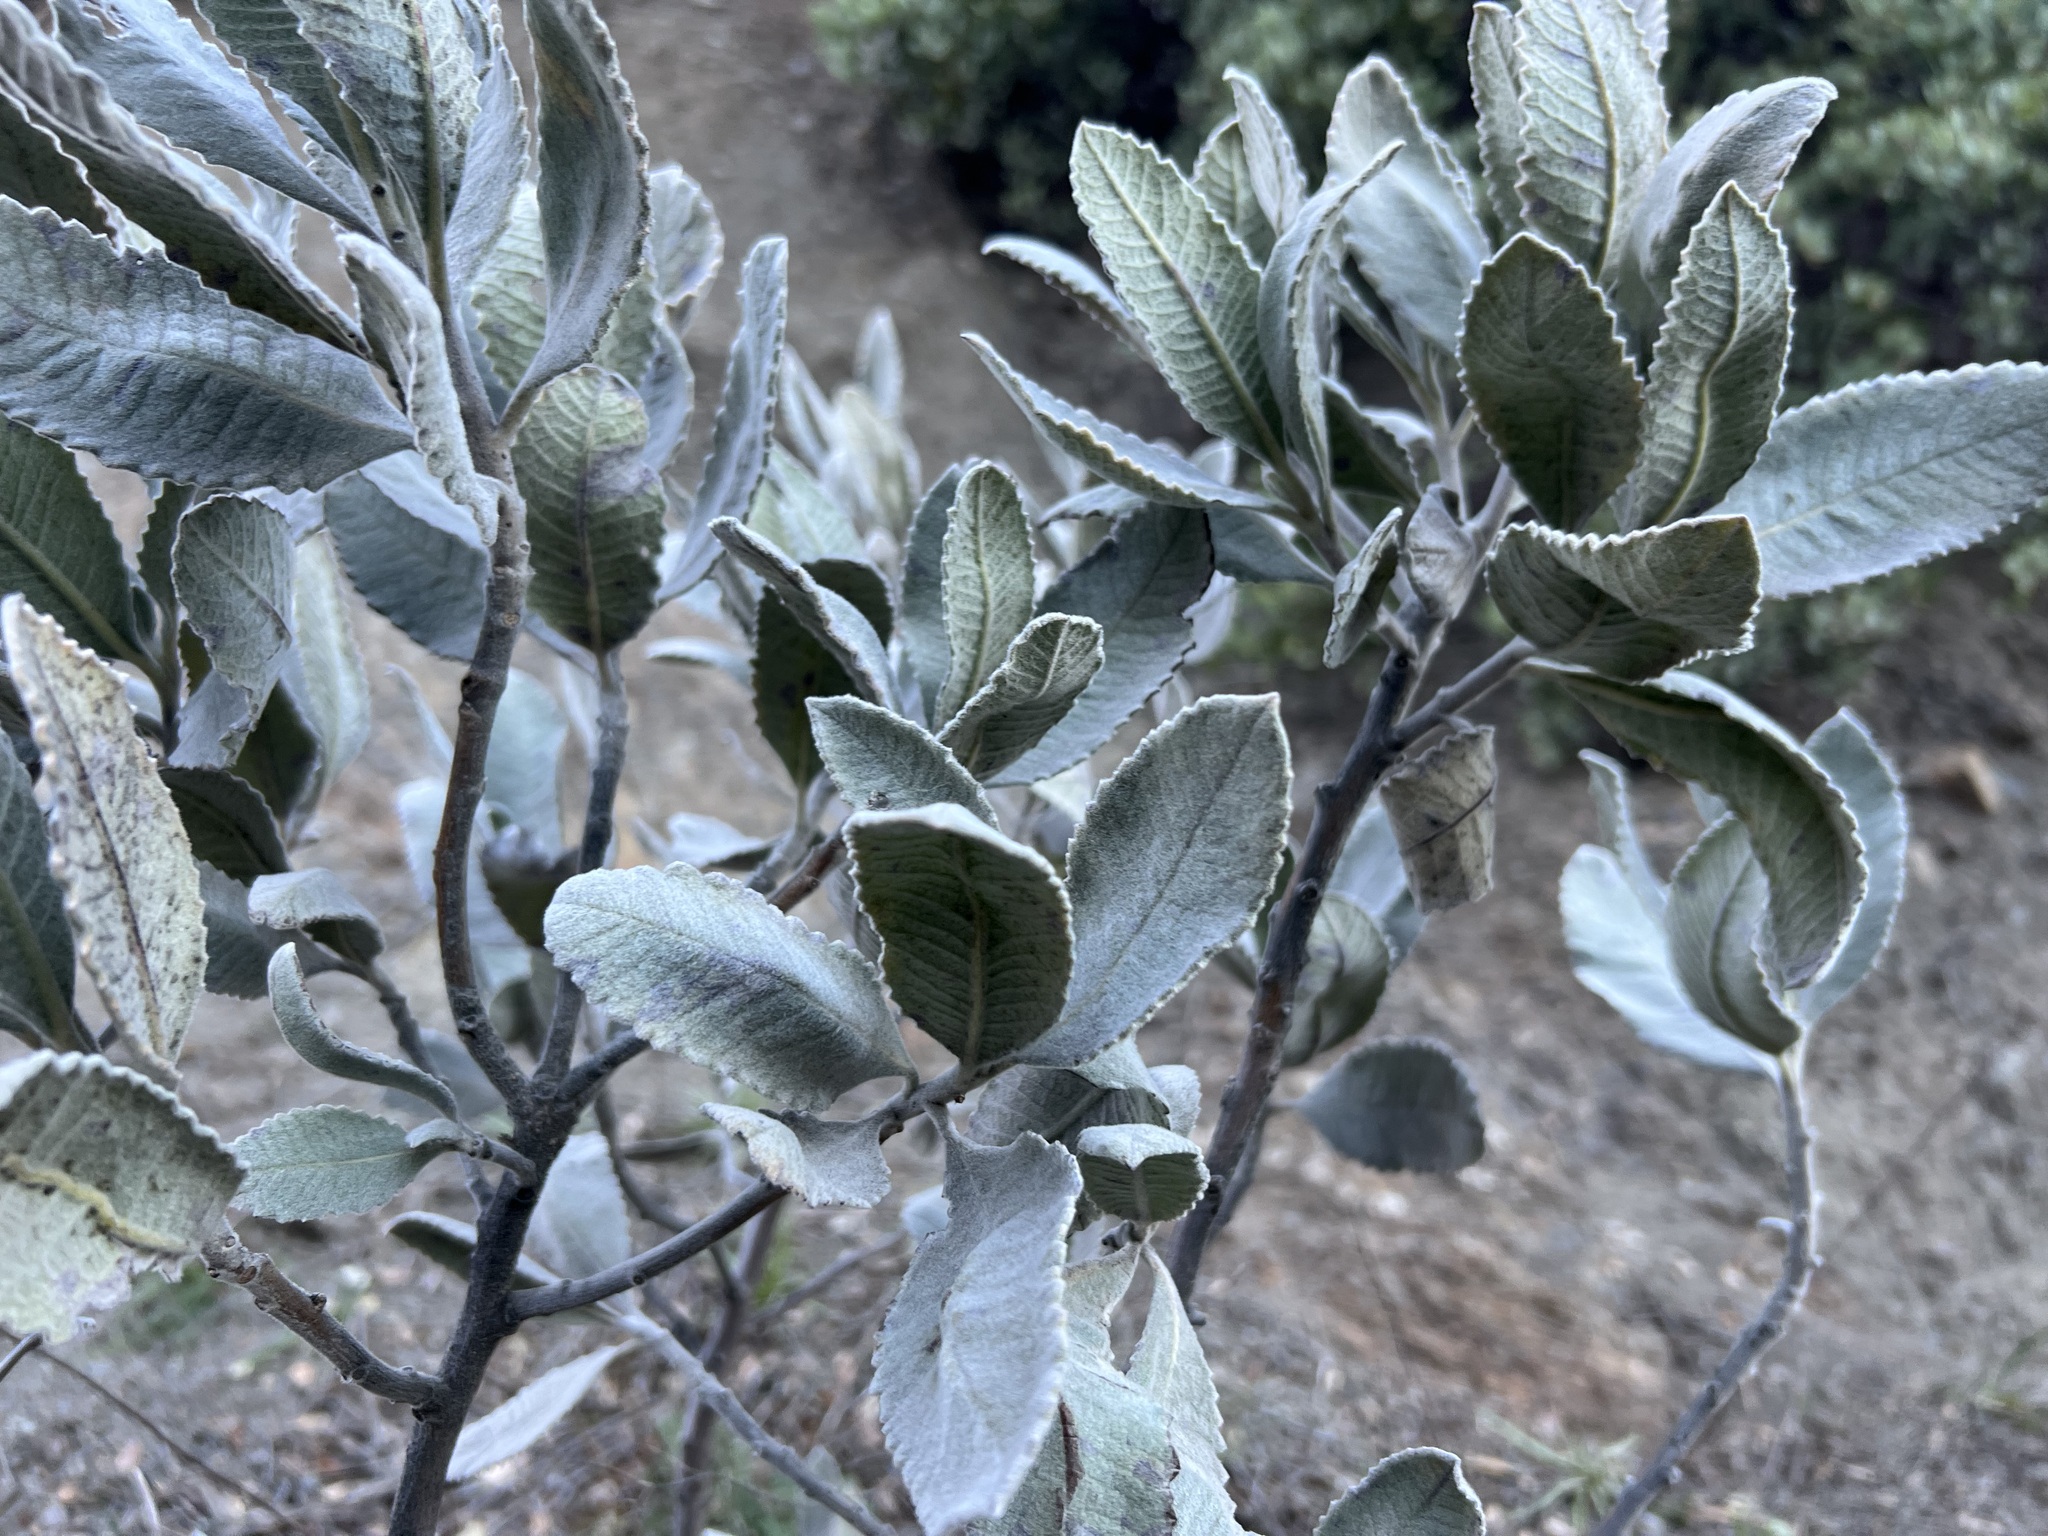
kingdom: Plantae
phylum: Tracheophyta
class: Magnoliopsida
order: Boraginales
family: Namaceae
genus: Eriodictyon
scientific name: Eriodictyon crassifolium
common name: Thick-leaf yerba-santa
